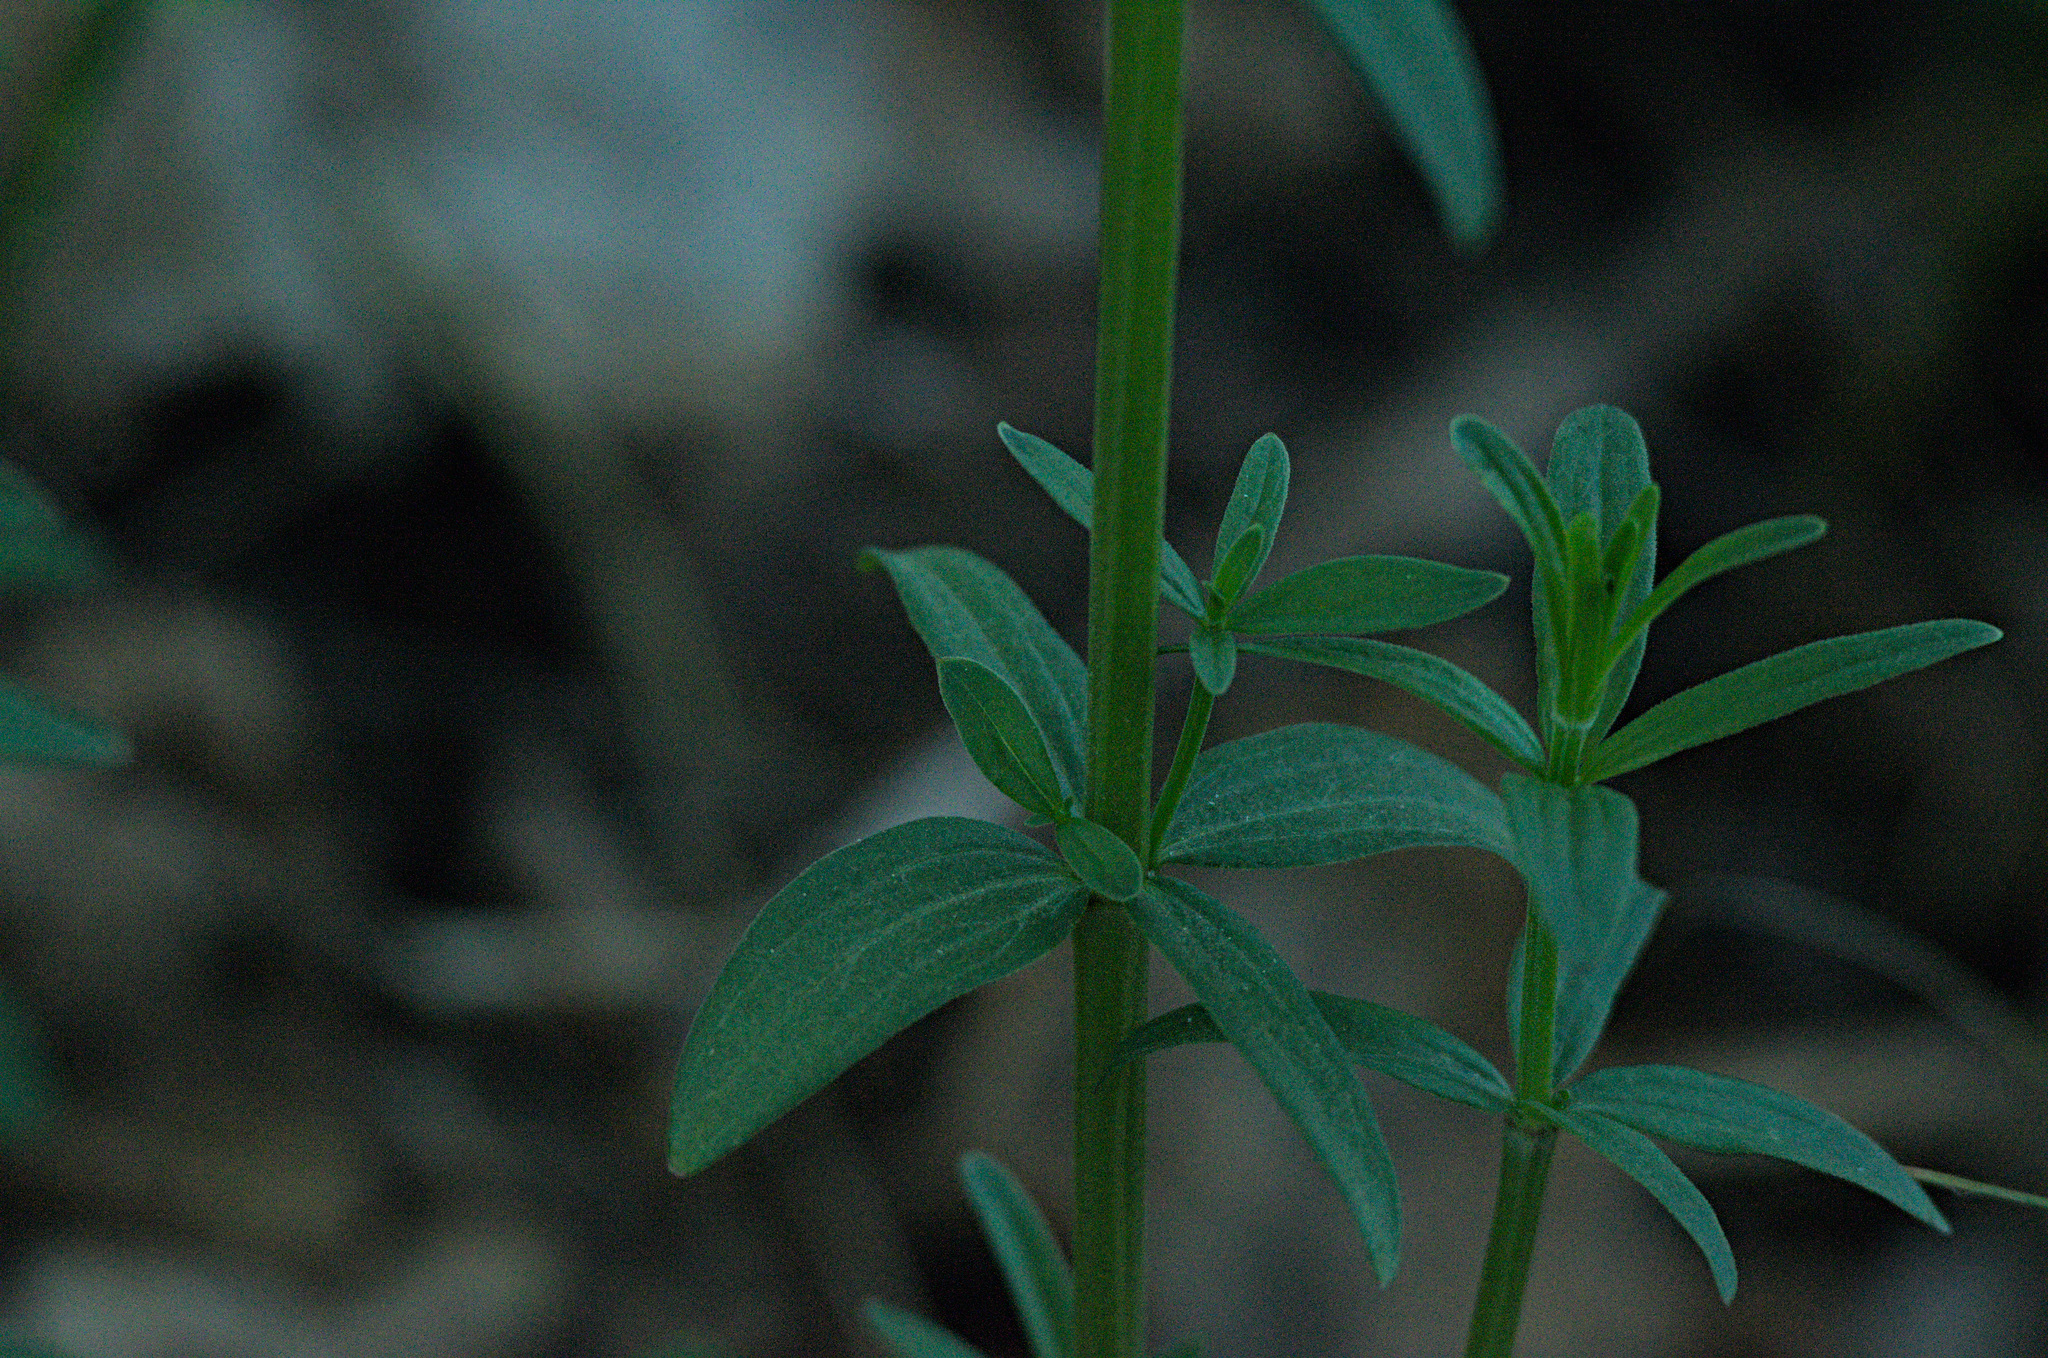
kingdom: Plantae
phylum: Tracheophyta
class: Magnoliopsida
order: Gentianales
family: Rubiaceae
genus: Galium
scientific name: Galium boreale
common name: Northern bedstraw
